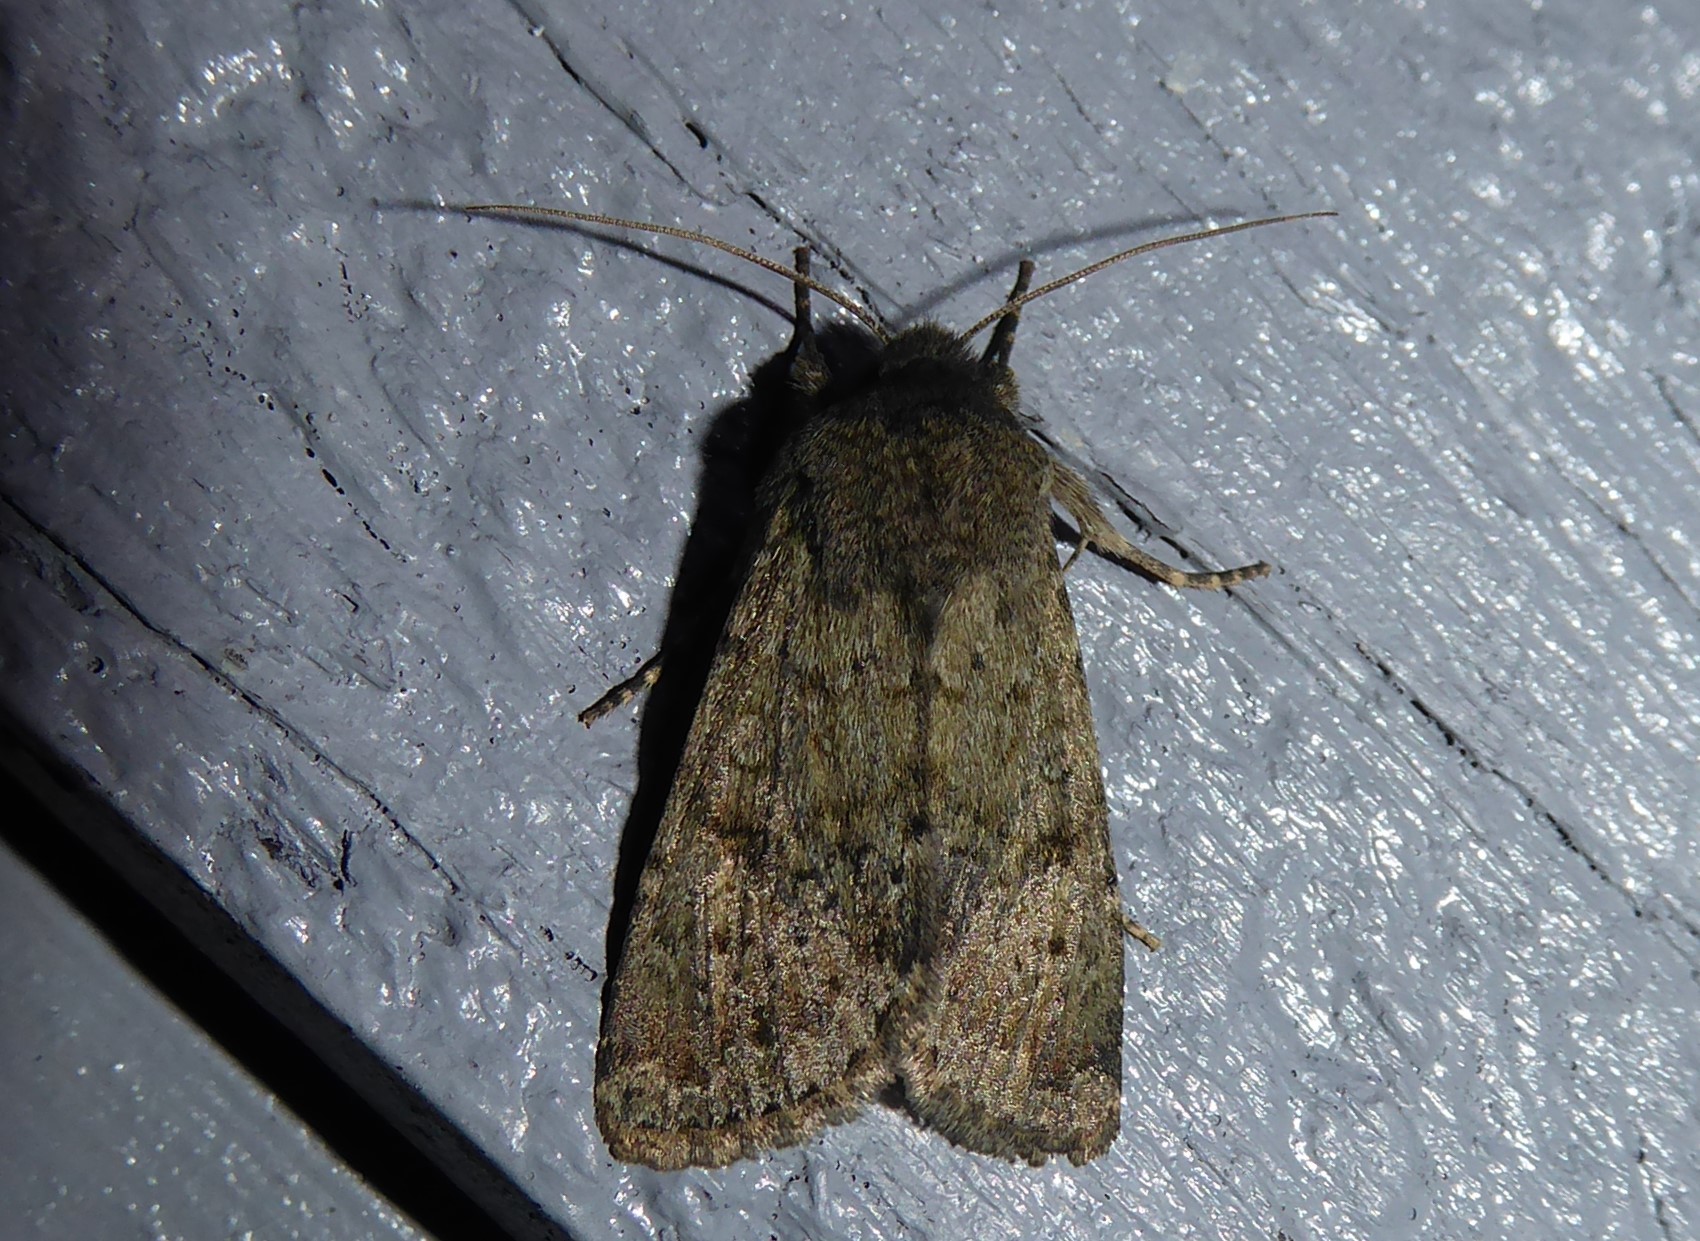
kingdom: Animalia
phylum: Arthropoda
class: Insecta
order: Lepidoptera
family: Noctuidae
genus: Ichneutica
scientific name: Ichneutica moderata
